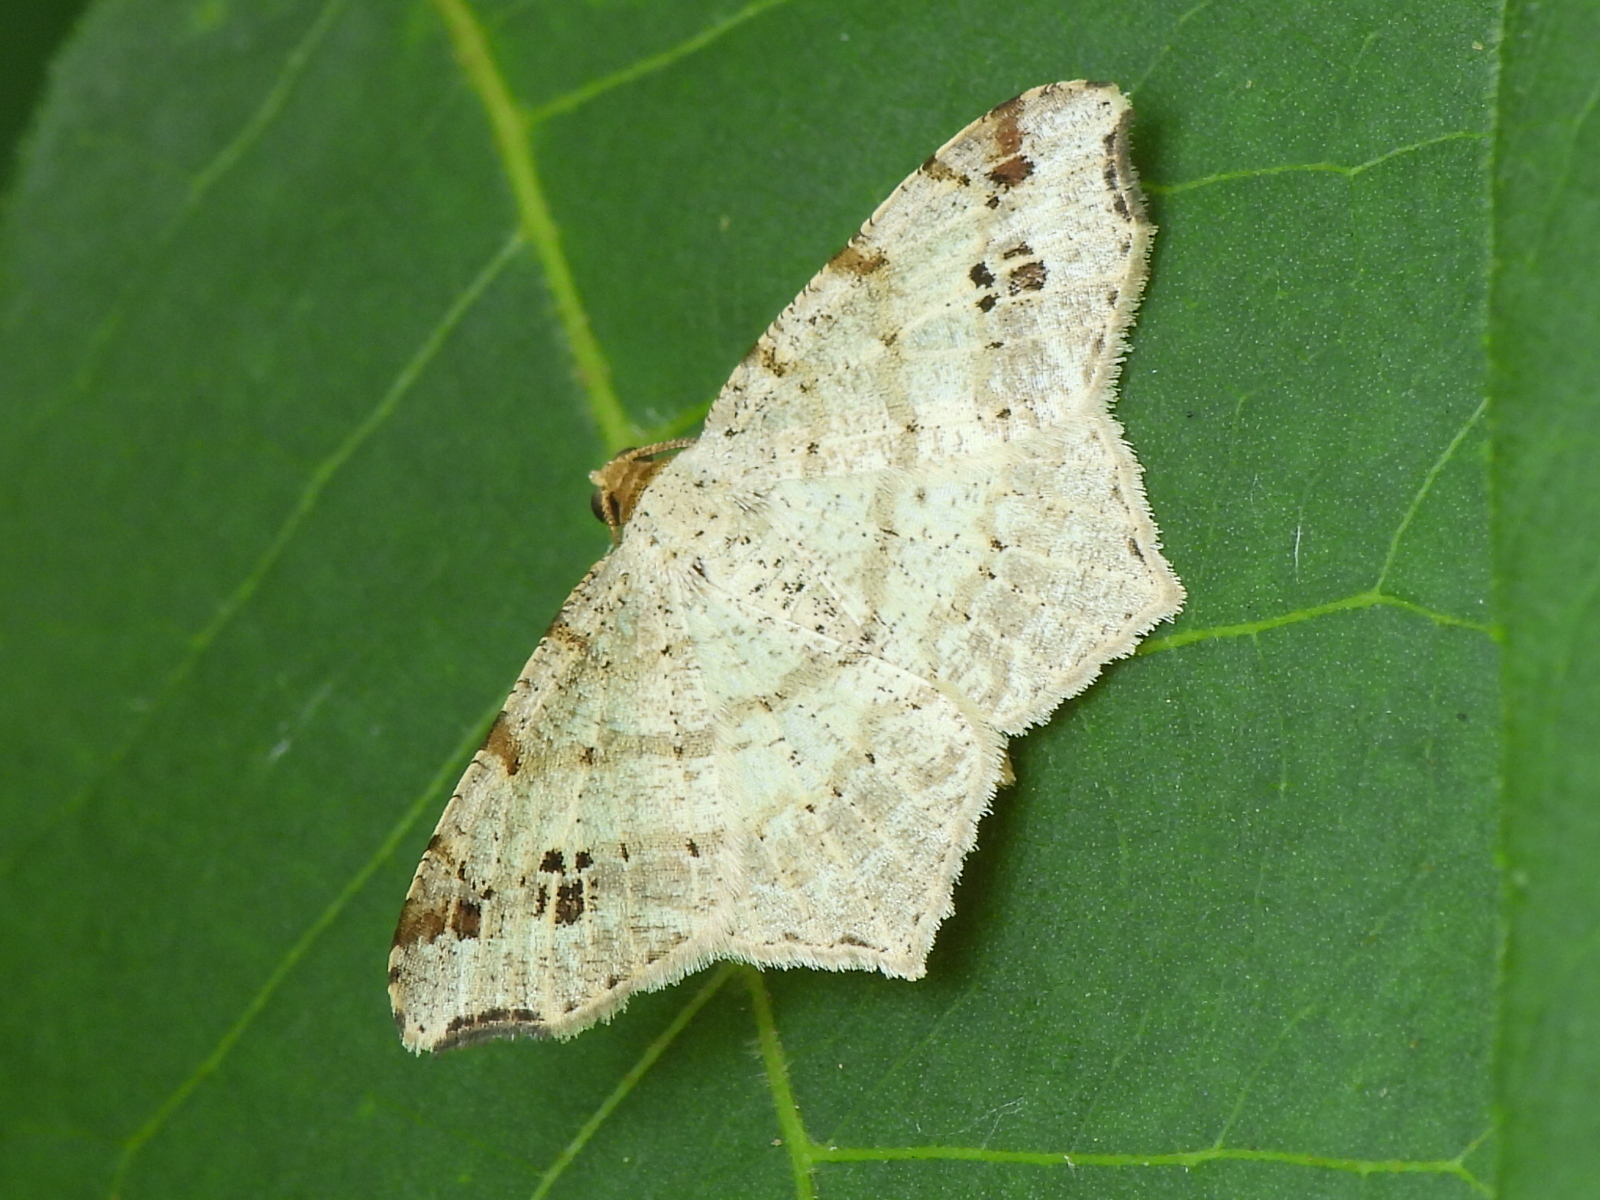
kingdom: Animalia
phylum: Arthropoda
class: Insecta
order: Lepidoptera
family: Geometridae
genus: Macaria
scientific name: Macaria aemulataria
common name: Common angle
